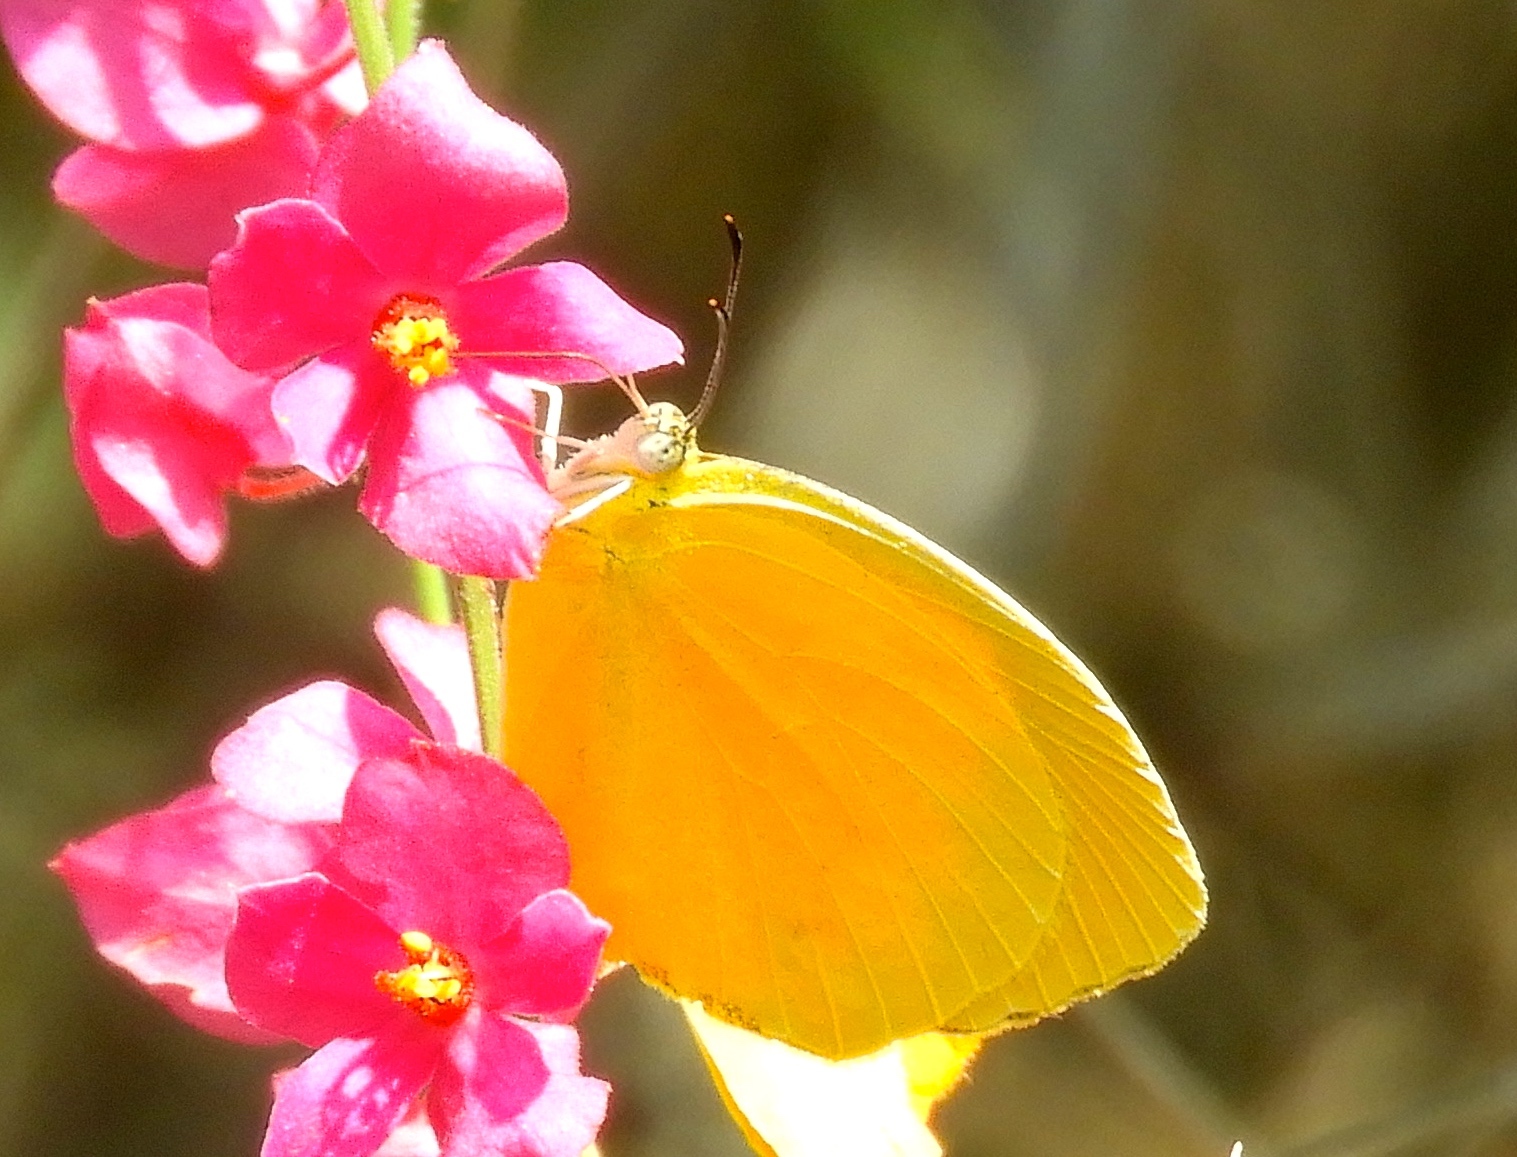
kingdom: Animalia
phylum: Arthropoda
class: Insecta
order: Lepidoptera
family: Pieridae
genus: Pyrisitia
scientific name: Pyrisitia proterpia
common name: Tailed orange
